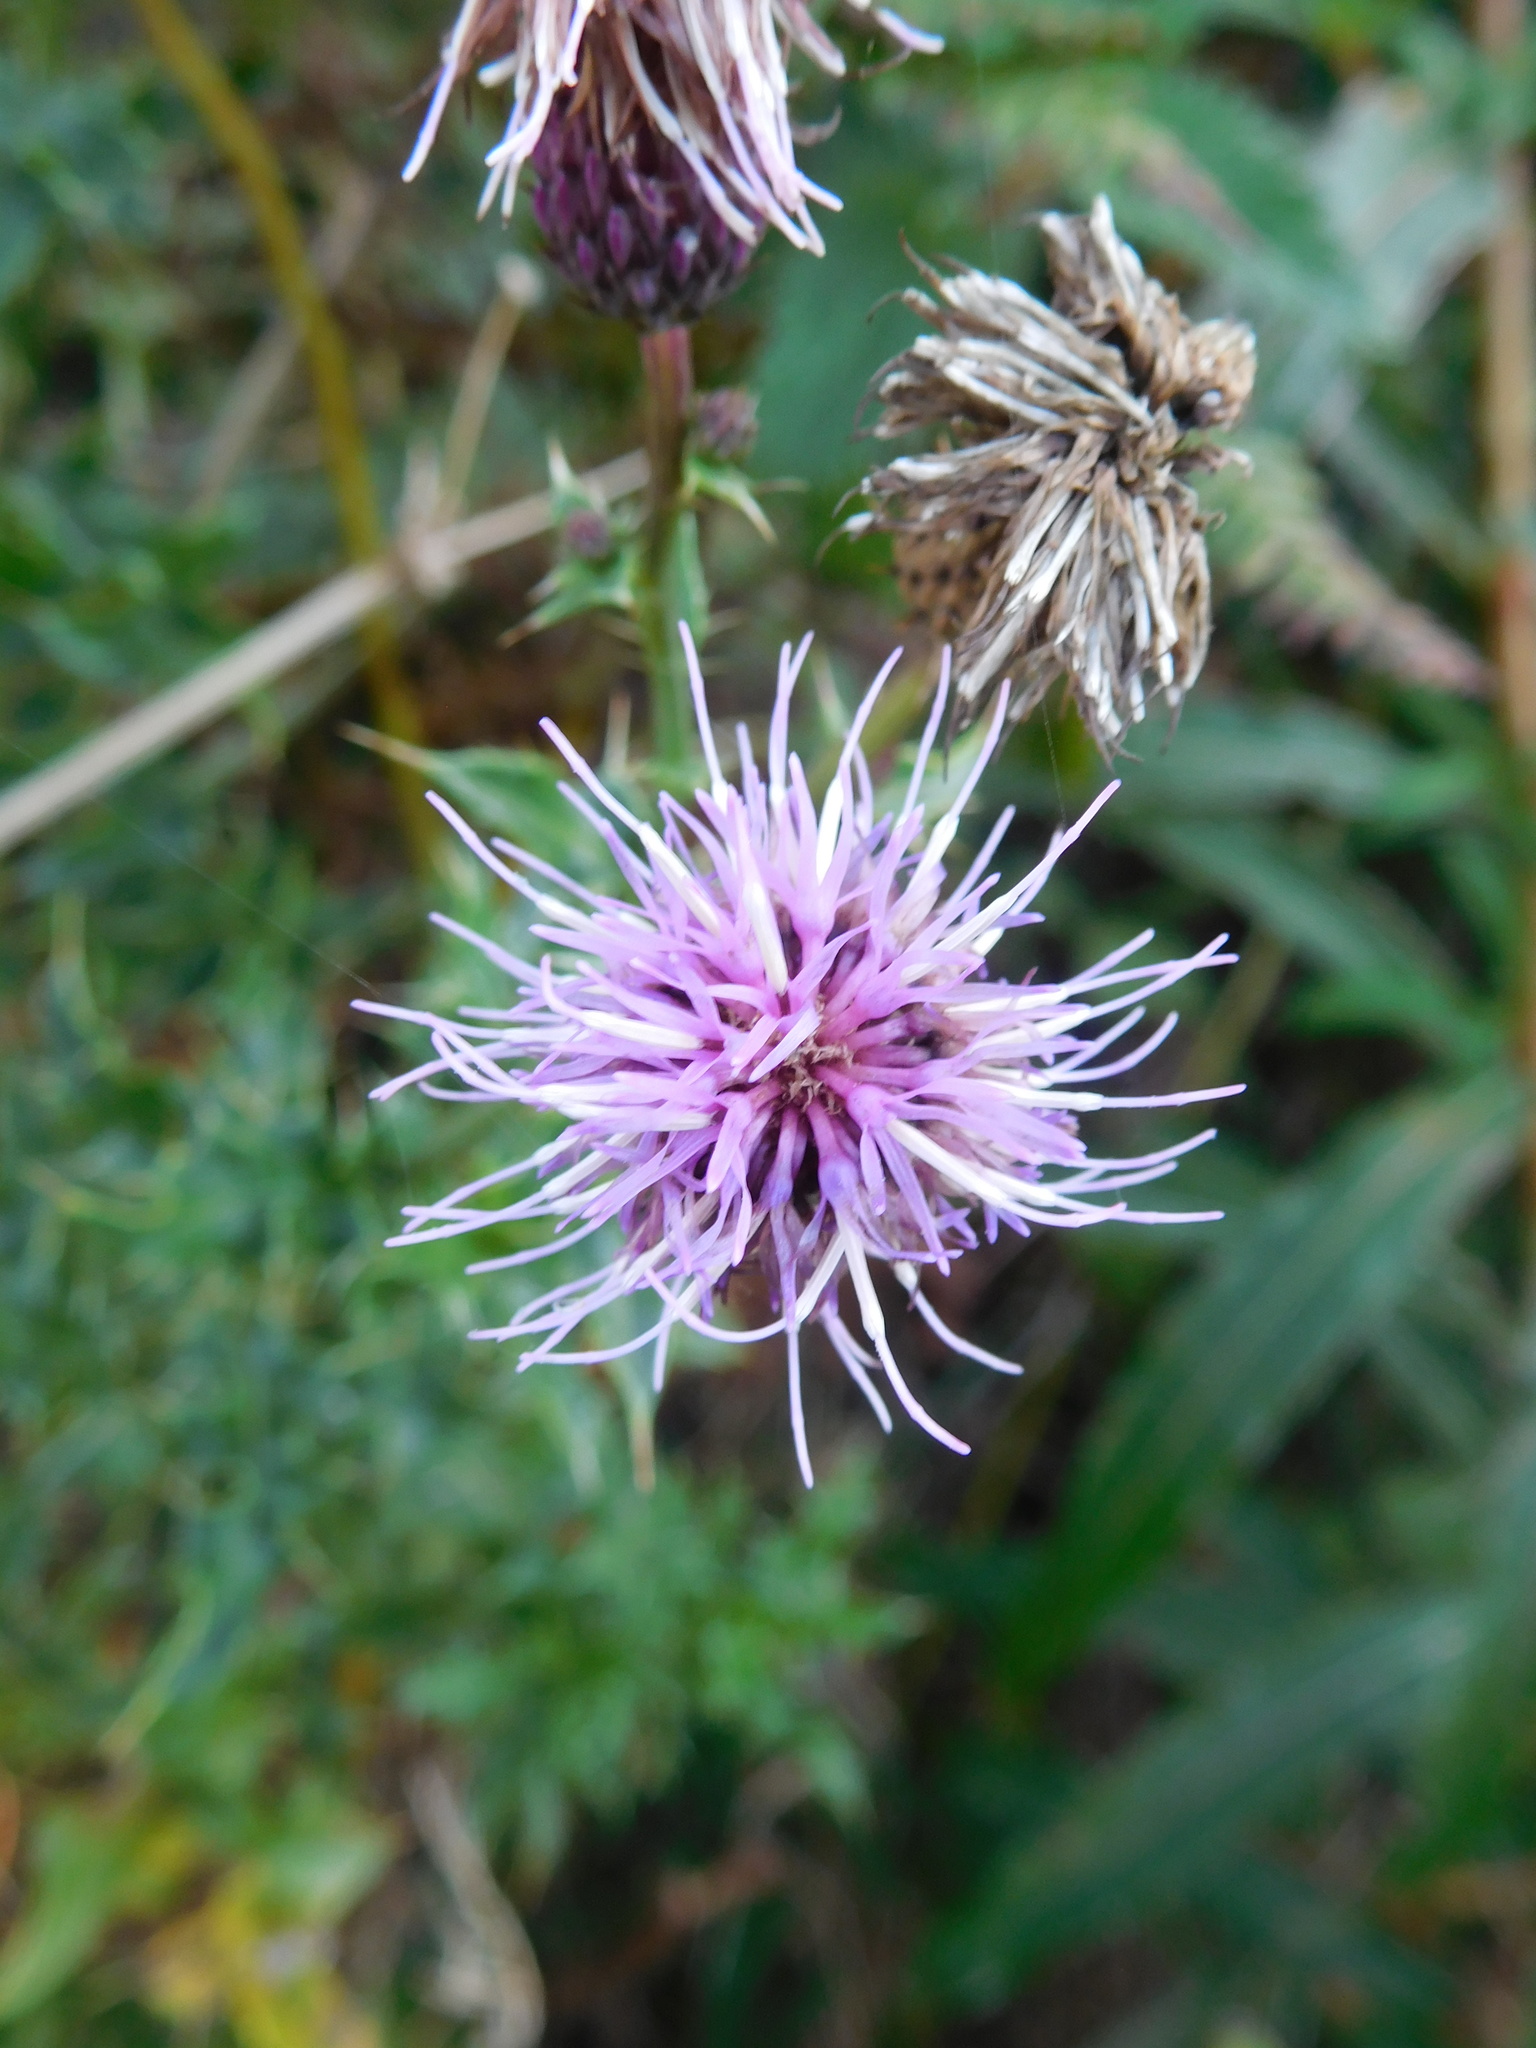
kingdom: Plantae
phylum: Tracheophyta
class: Magnoliopsida
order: Asterales
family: Asteraceae
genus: Cirsium
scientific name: Cirsium arvense
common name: Creeping thistle
